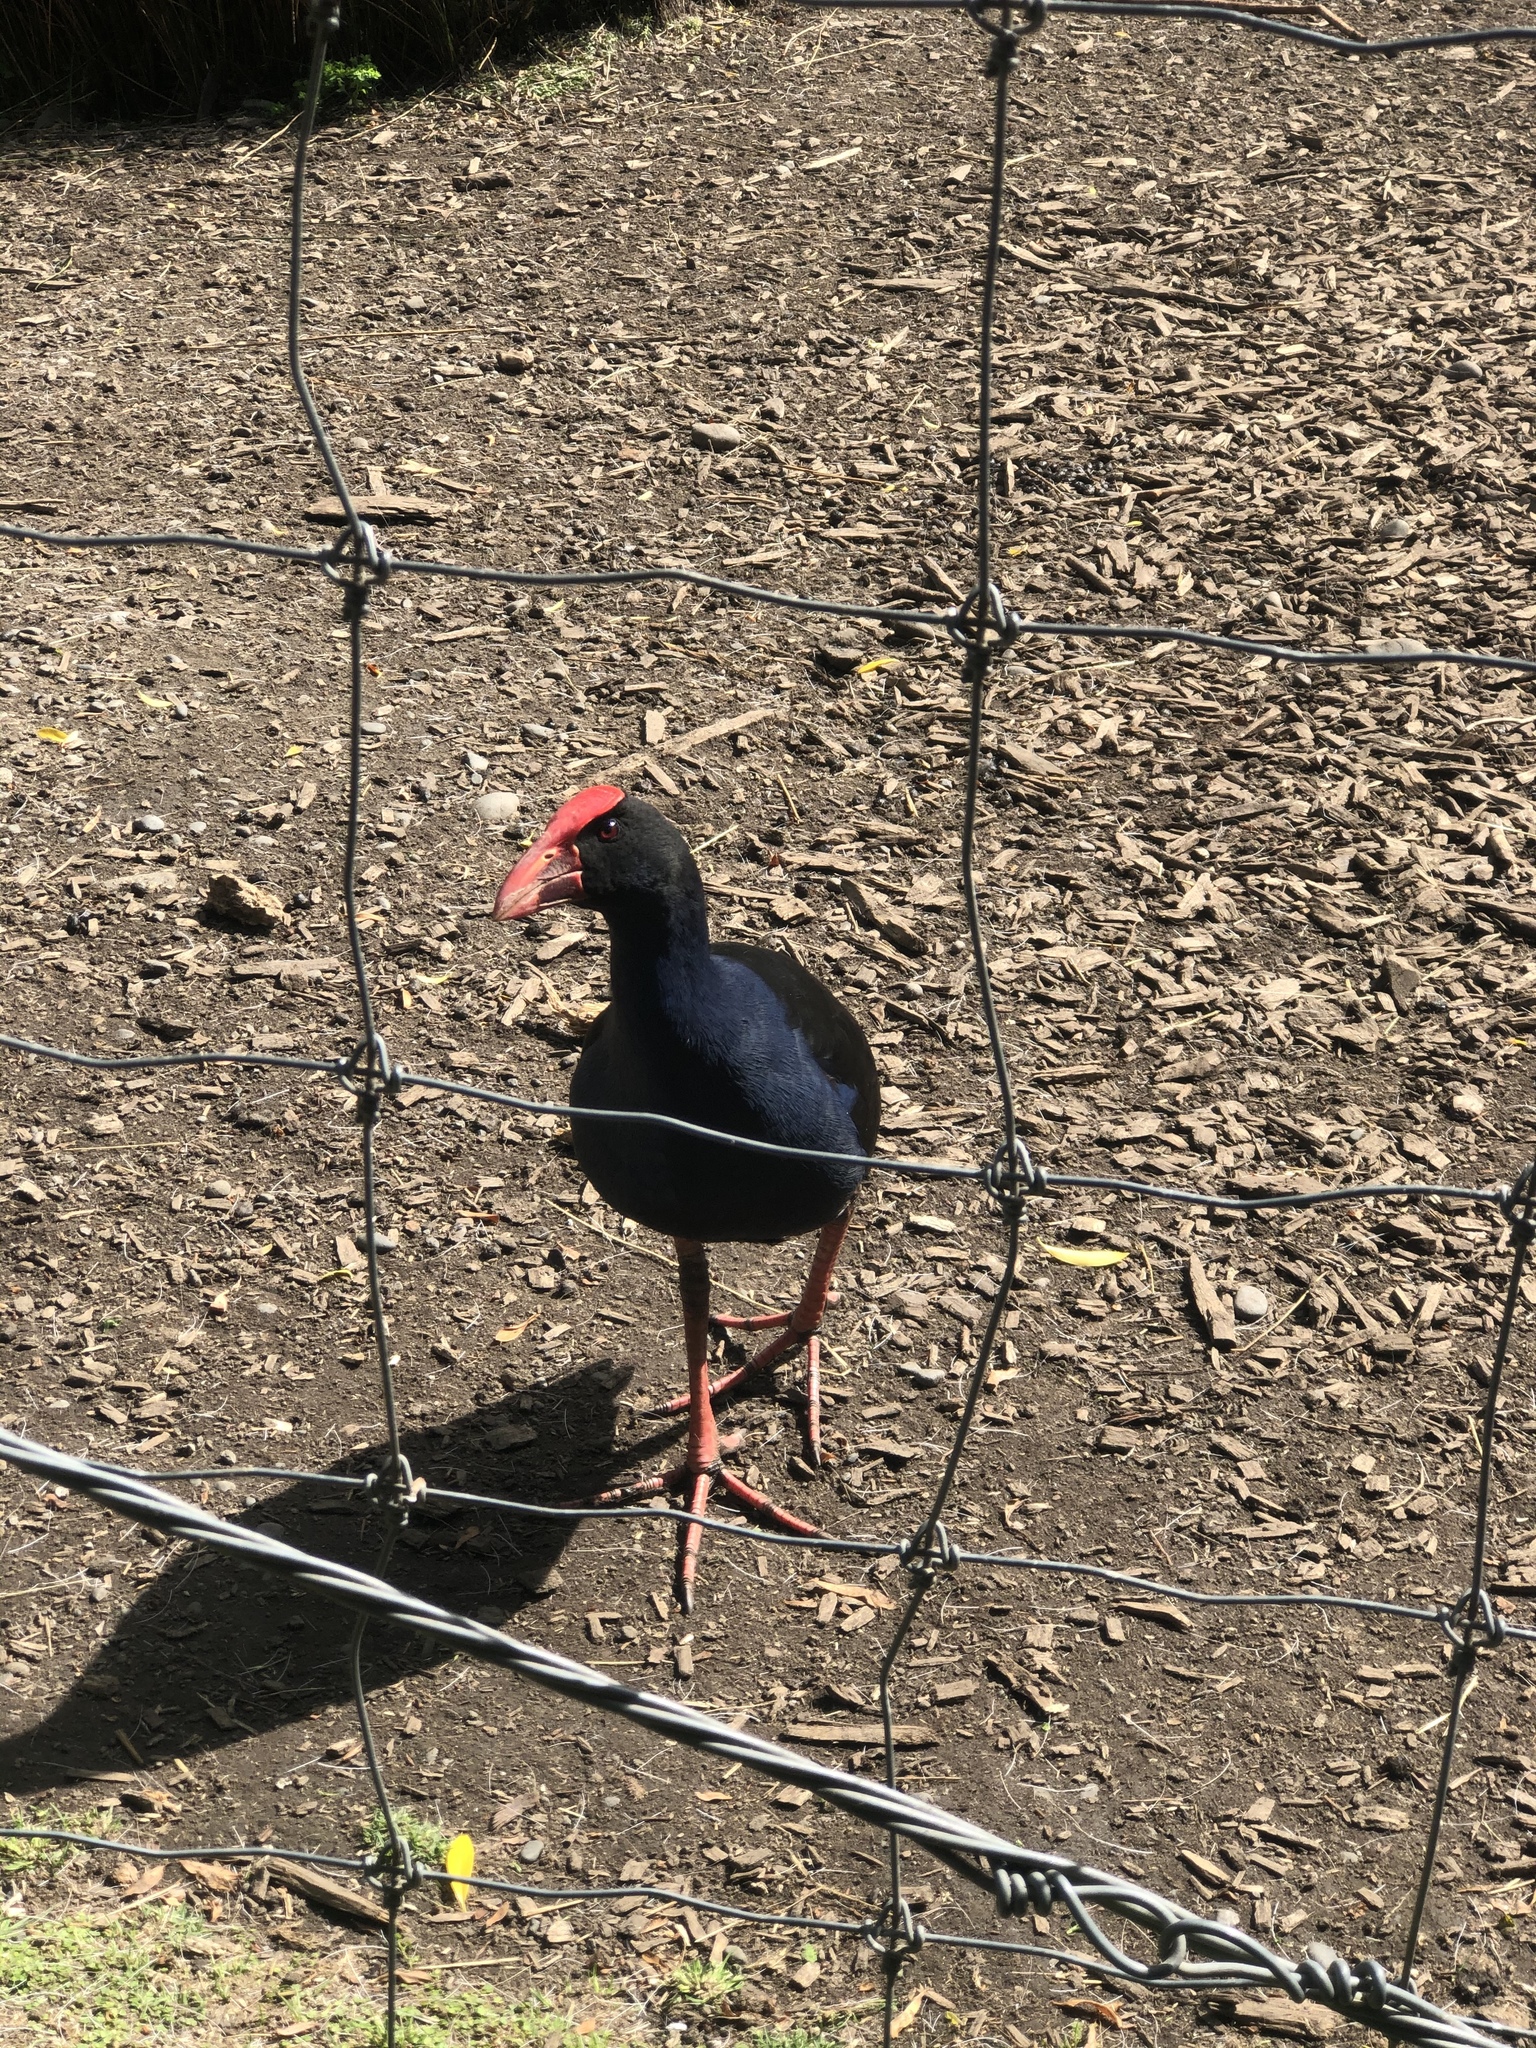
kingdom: Animalia
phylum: Chordata
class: Aves
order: Gruiformes
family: Rallidae
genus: Porphyrio
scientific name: Porphyrio melanotus
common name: Australasian swamphen
